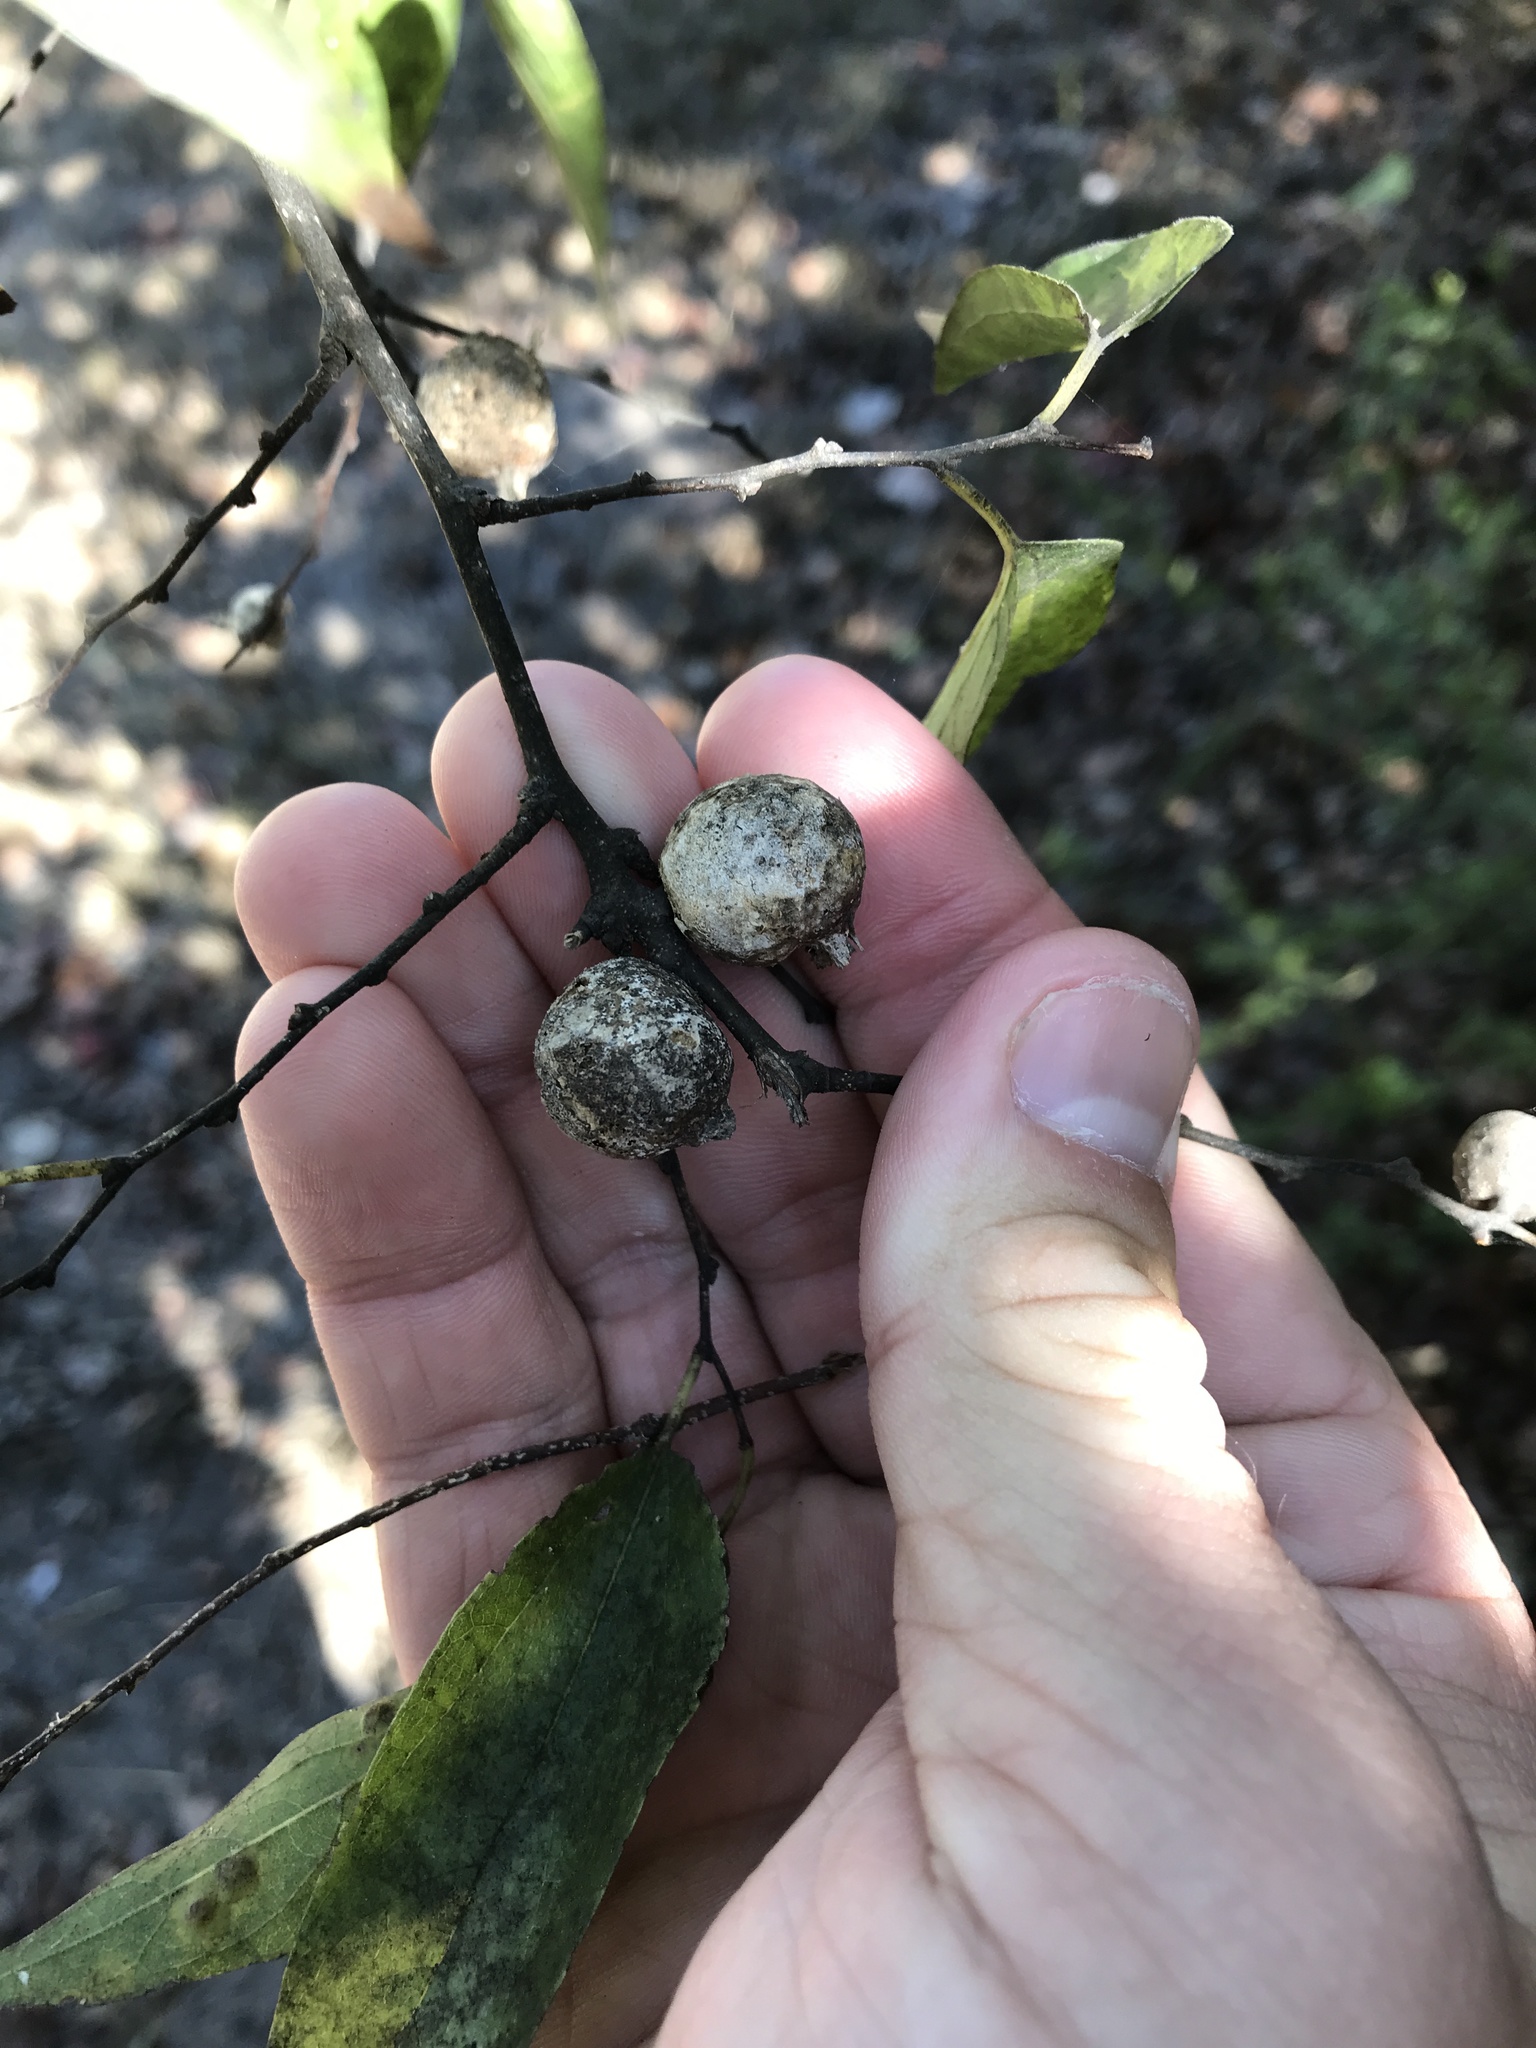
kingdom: Animalia
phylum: Arthropoda
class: Insecta
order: Hemiptera
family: Aphalaridae
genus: Pachypsylla
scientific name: Pachypsylla venusta
